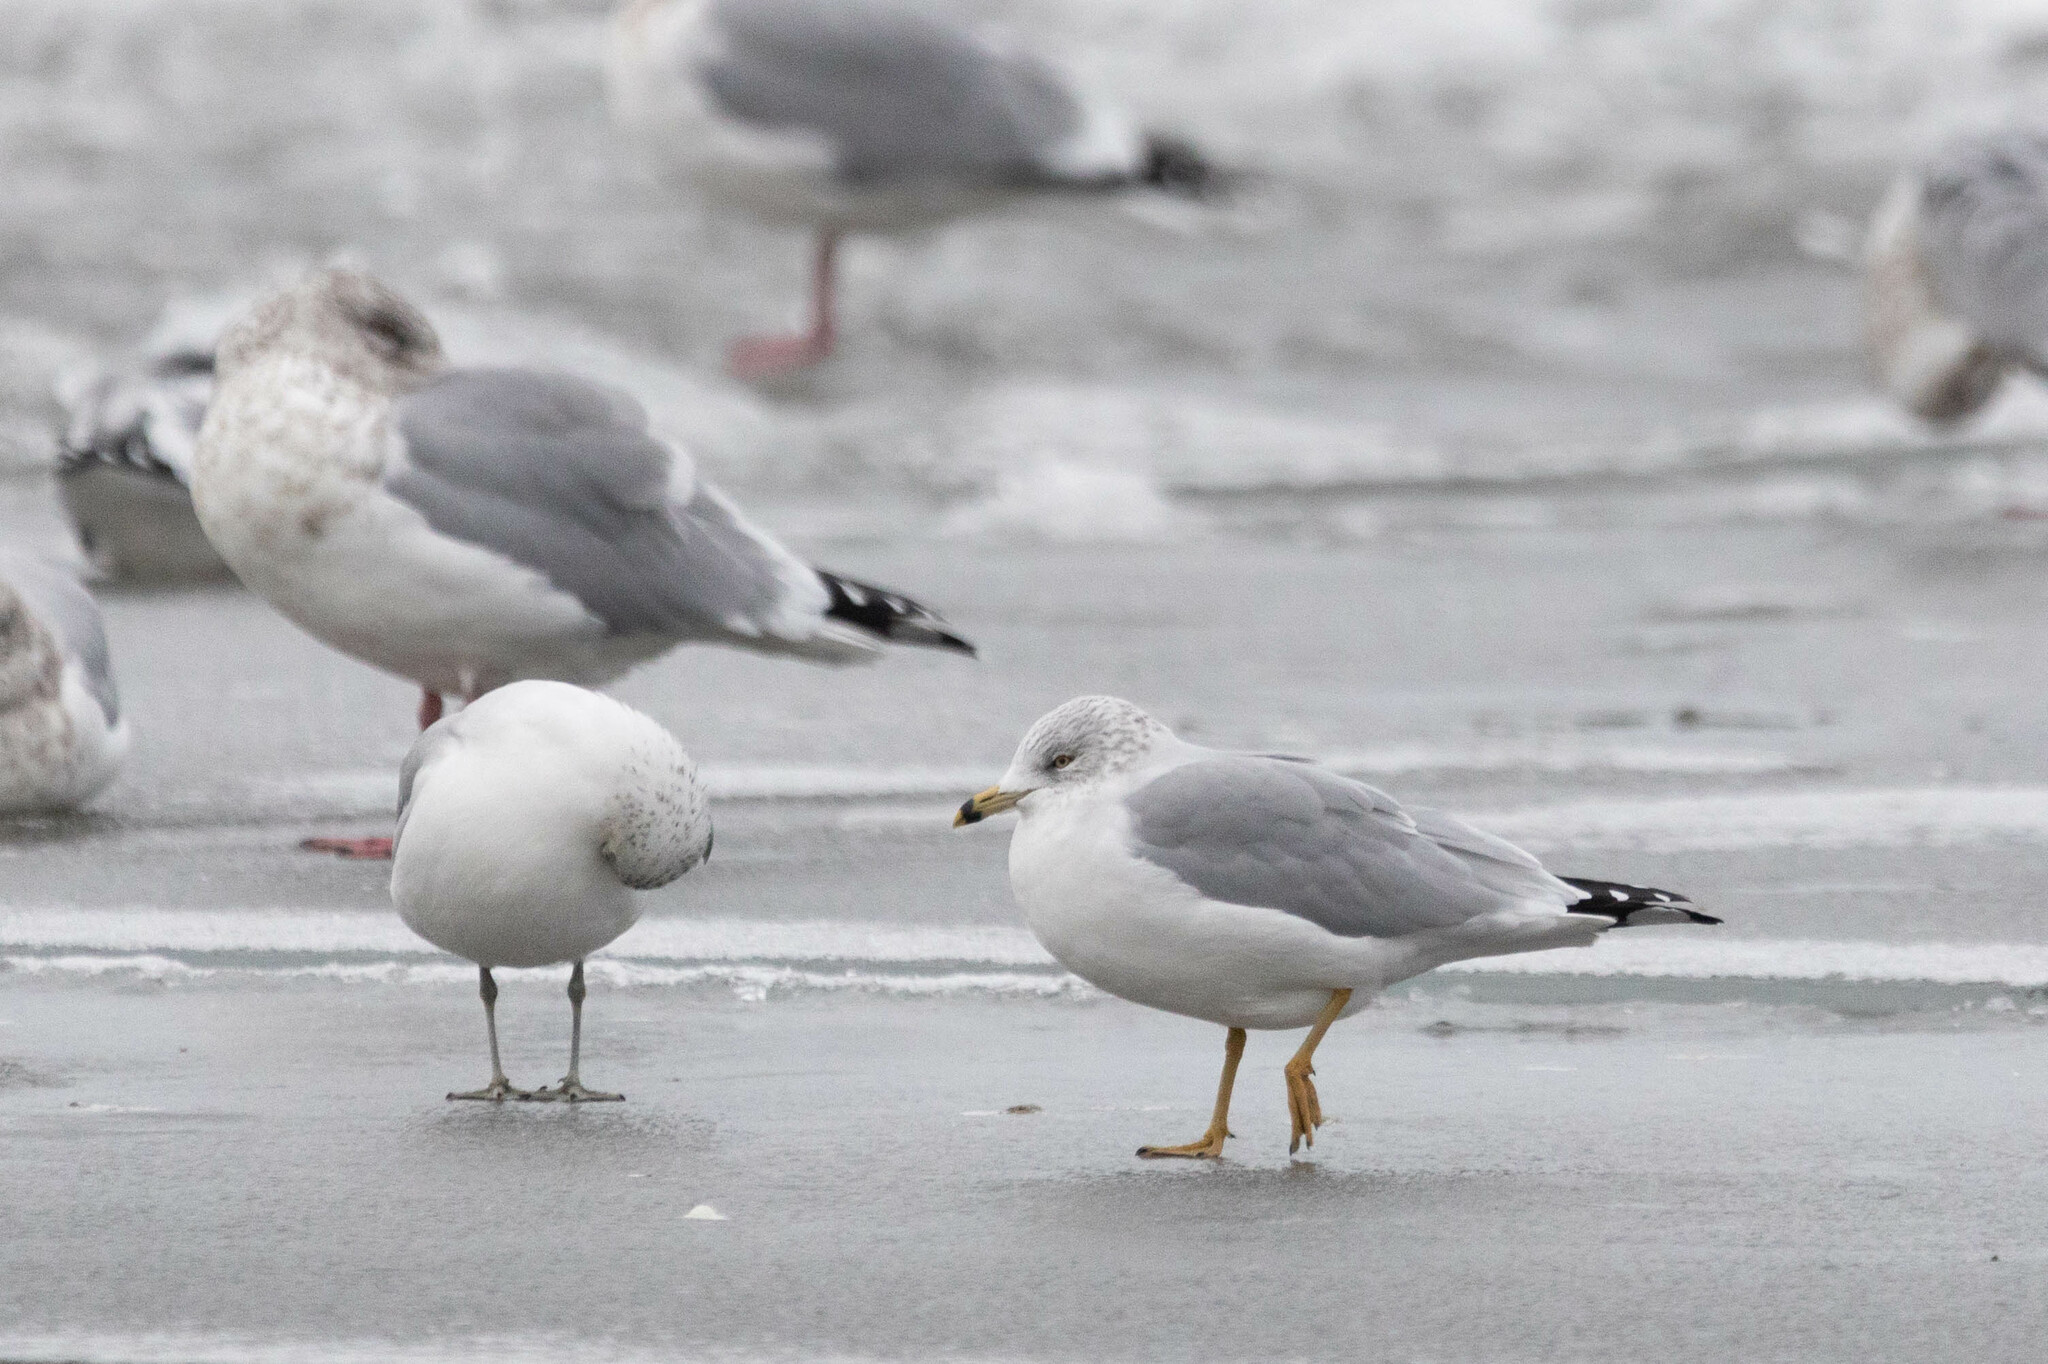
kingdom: Animalia
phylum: Chordata
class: Aves
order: Charadriiformes
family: Laridae
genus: Larus
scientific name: Larus delawarensis
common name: Ring-billed gull
